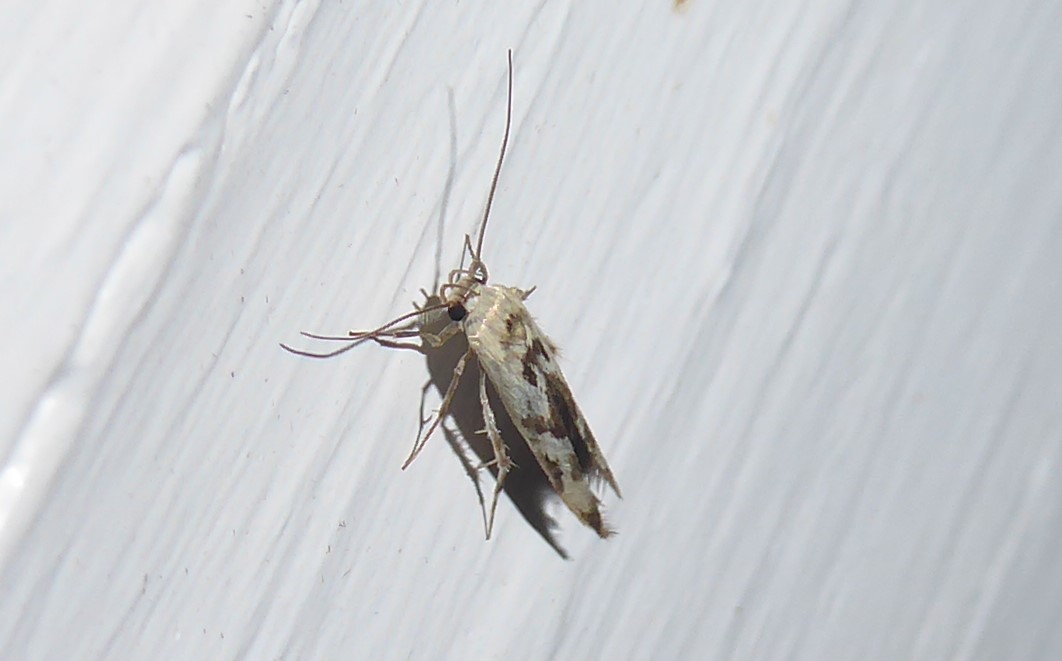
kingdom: Animalia
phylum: Arthropoda
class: Insecta
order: Lepidoptera
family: Stathmopodidae
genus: Stathmopoda
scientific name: Stathmopoda melanochra
